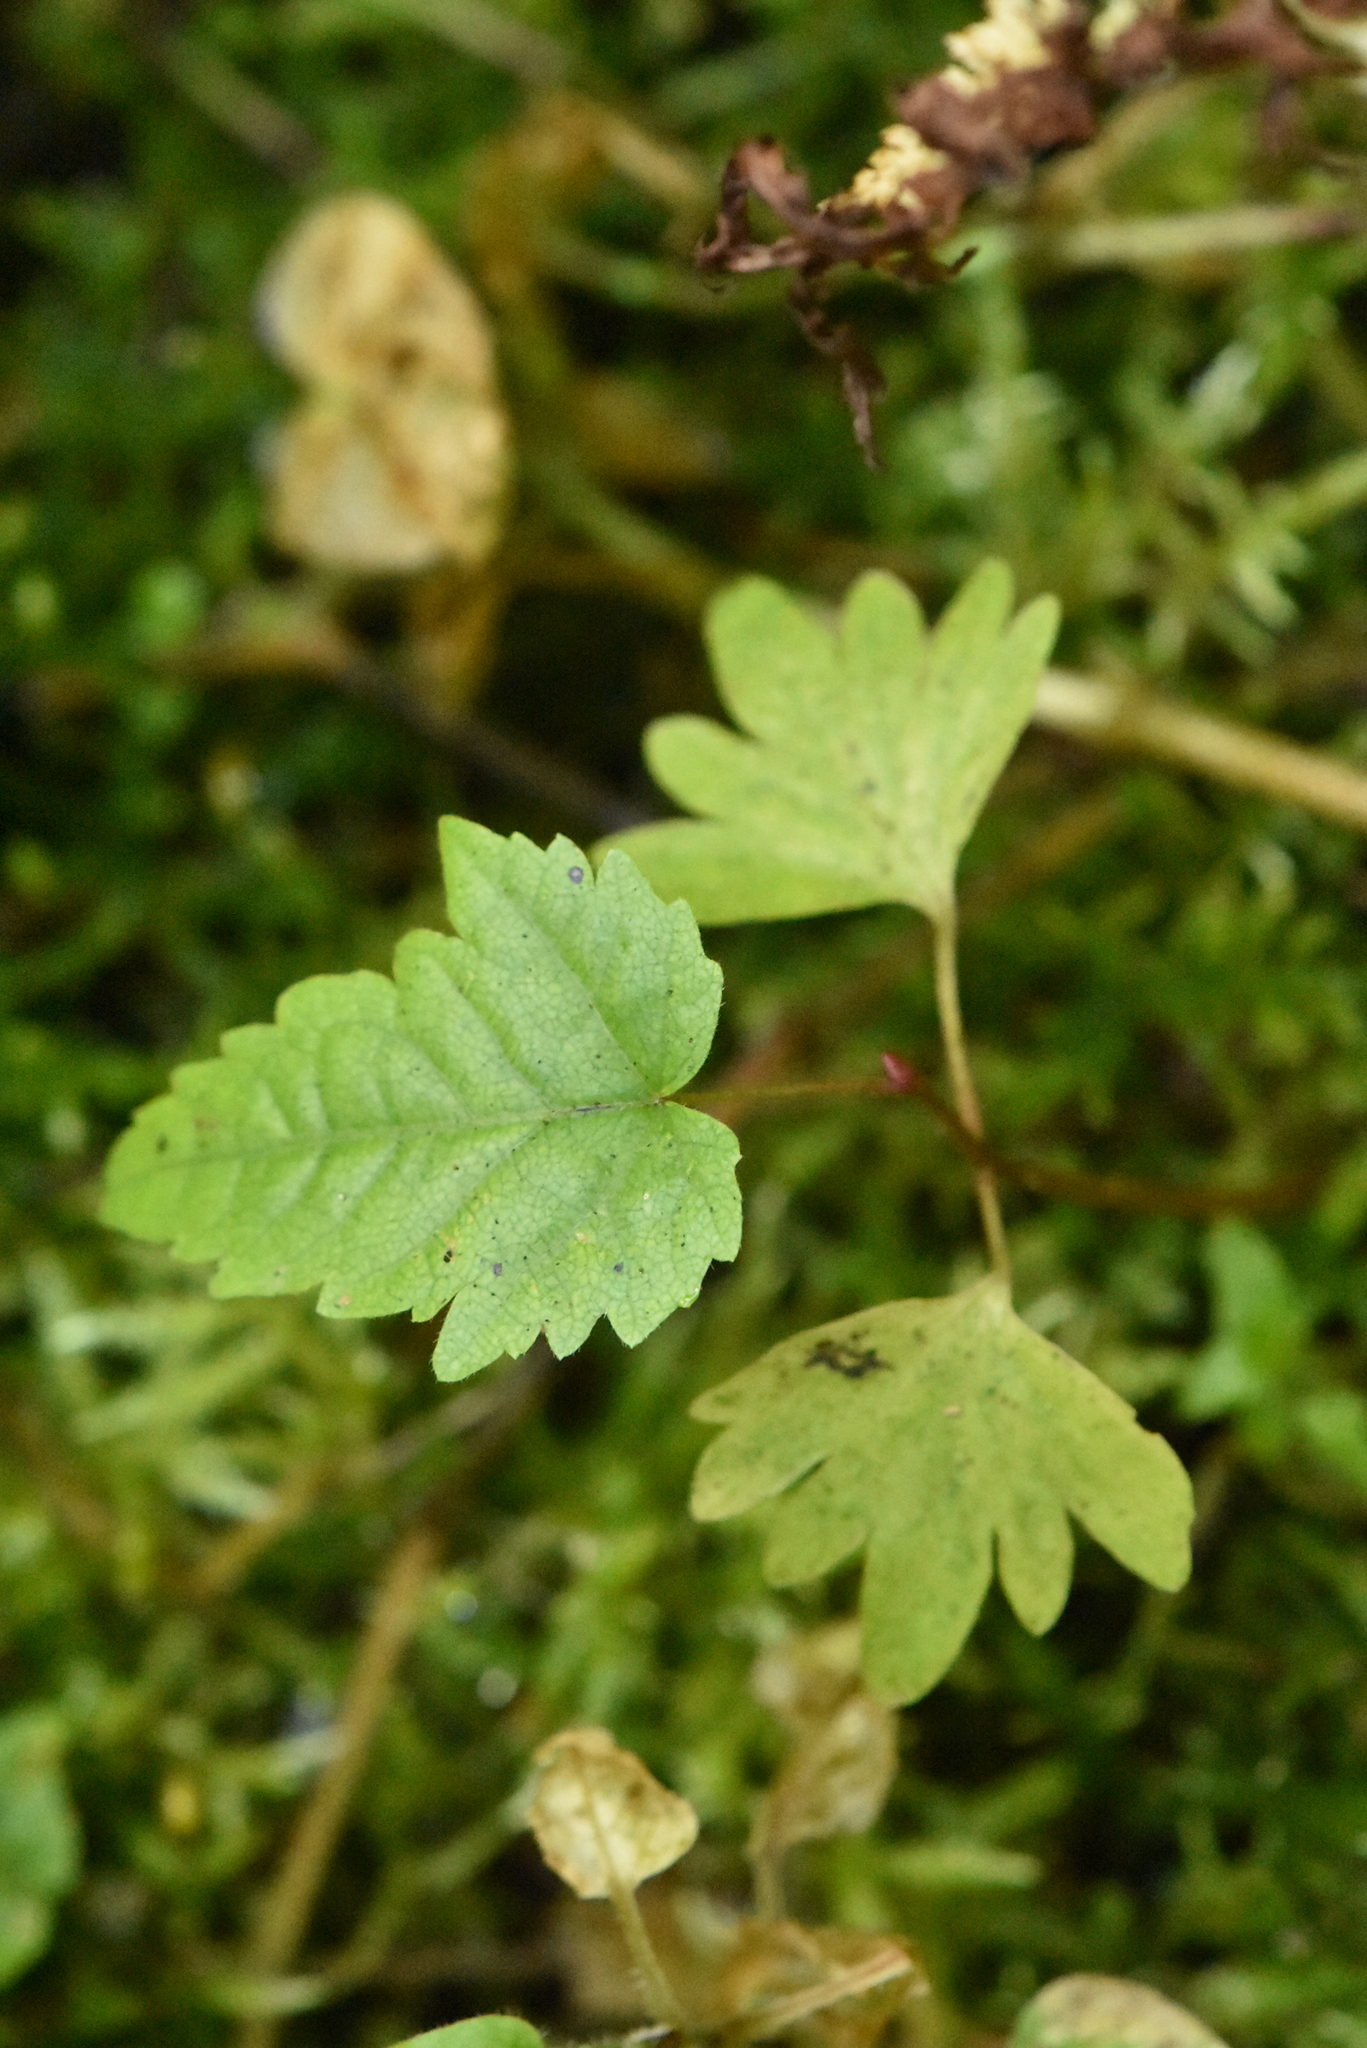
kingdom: Plantae
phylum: Tracheophyta
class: Magnoliopsida
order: Malvales
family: Malvaceae
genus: Tilia
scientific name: Tilia cordata
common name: Small-leaved lime
